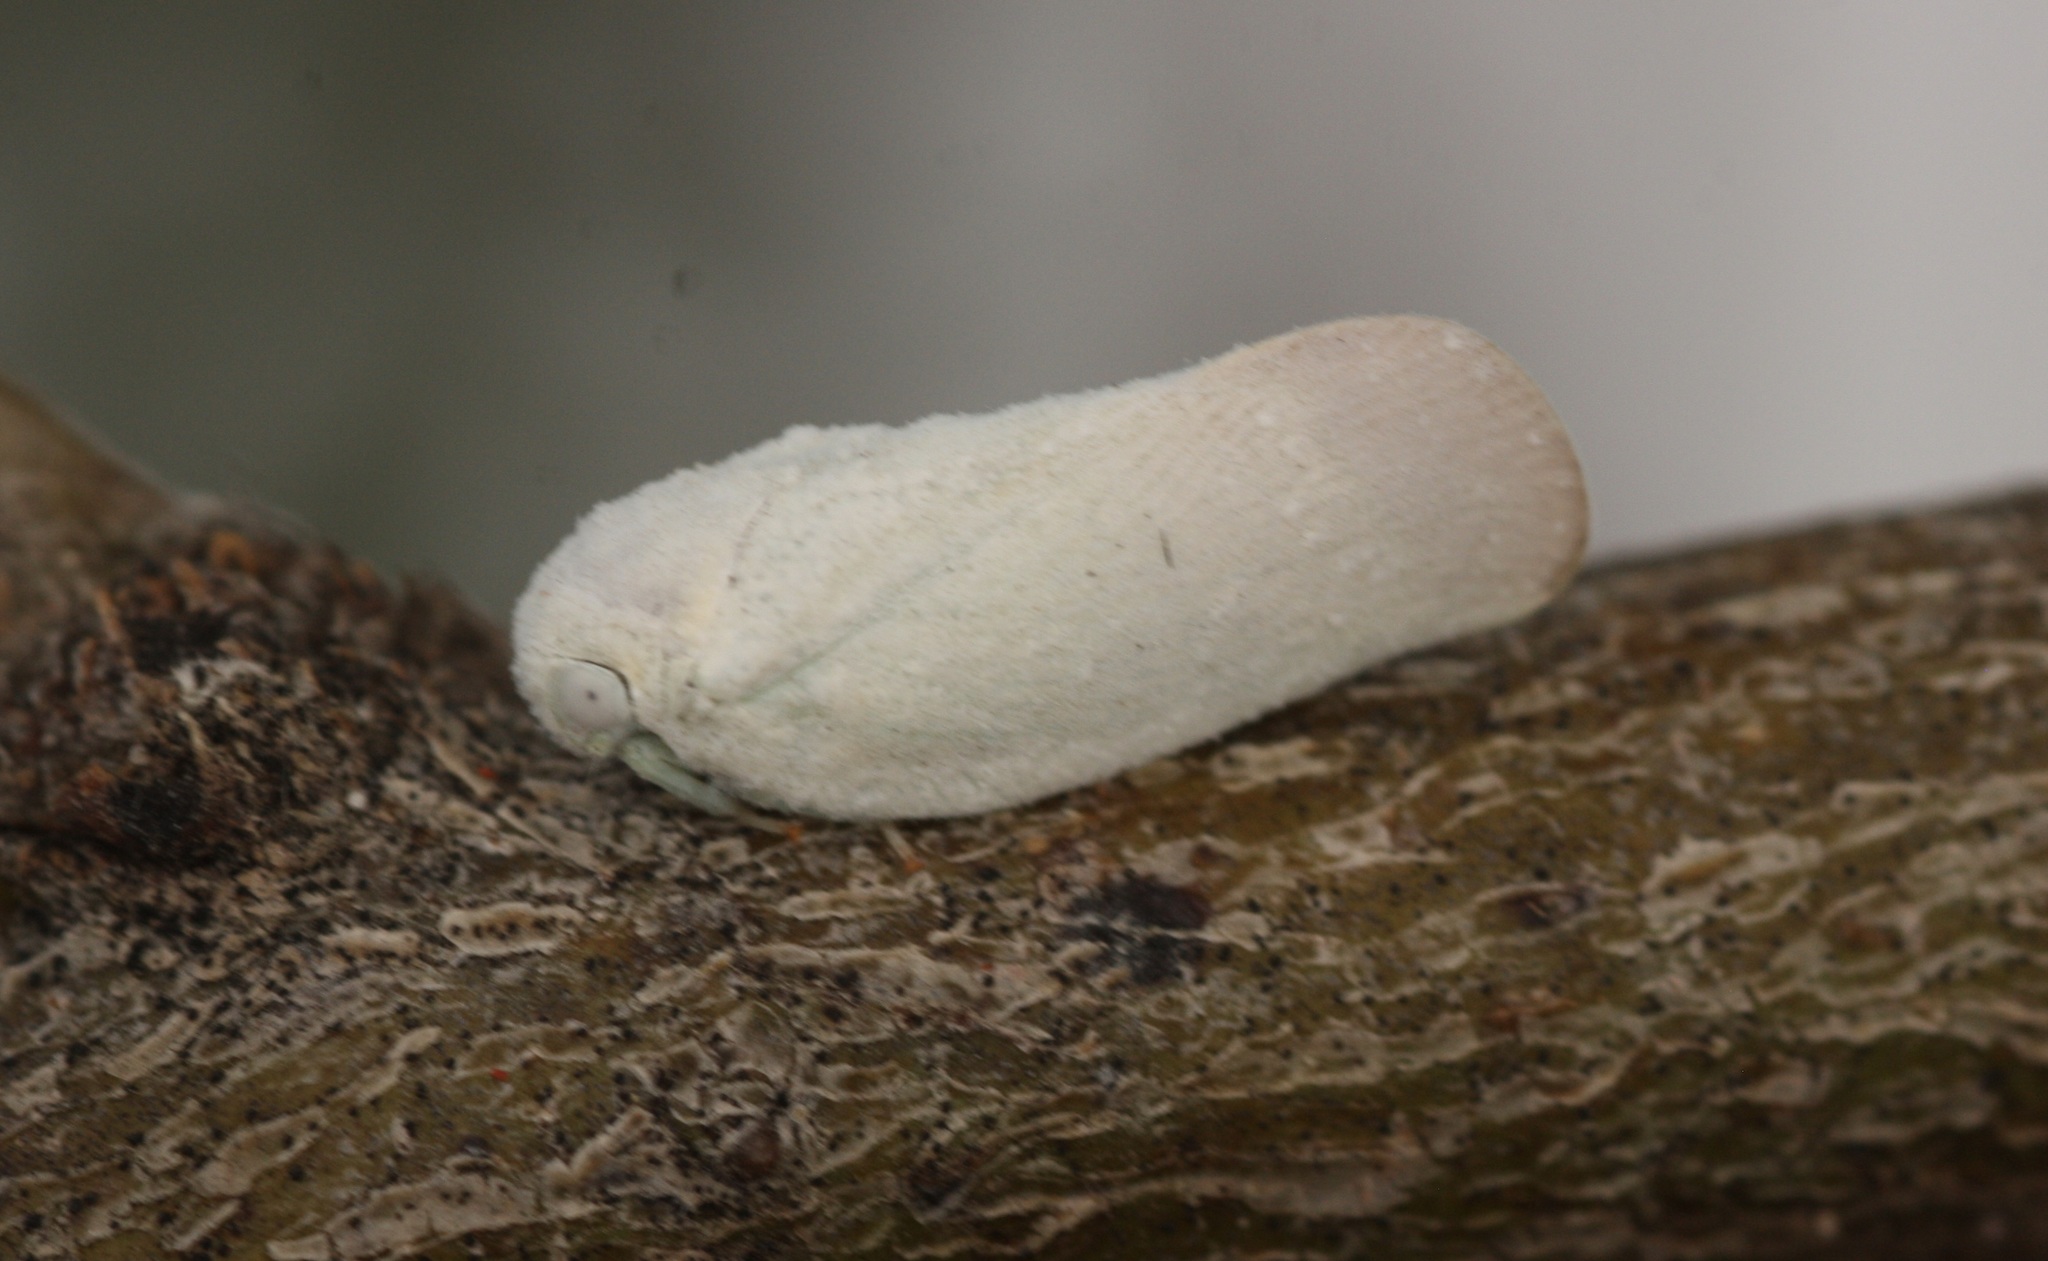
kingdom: Animalia
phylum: Arthropoda
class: Insecta
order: Hemiptera
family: Flatidae
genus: Flatormenis
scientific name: Flatormenis saucia
